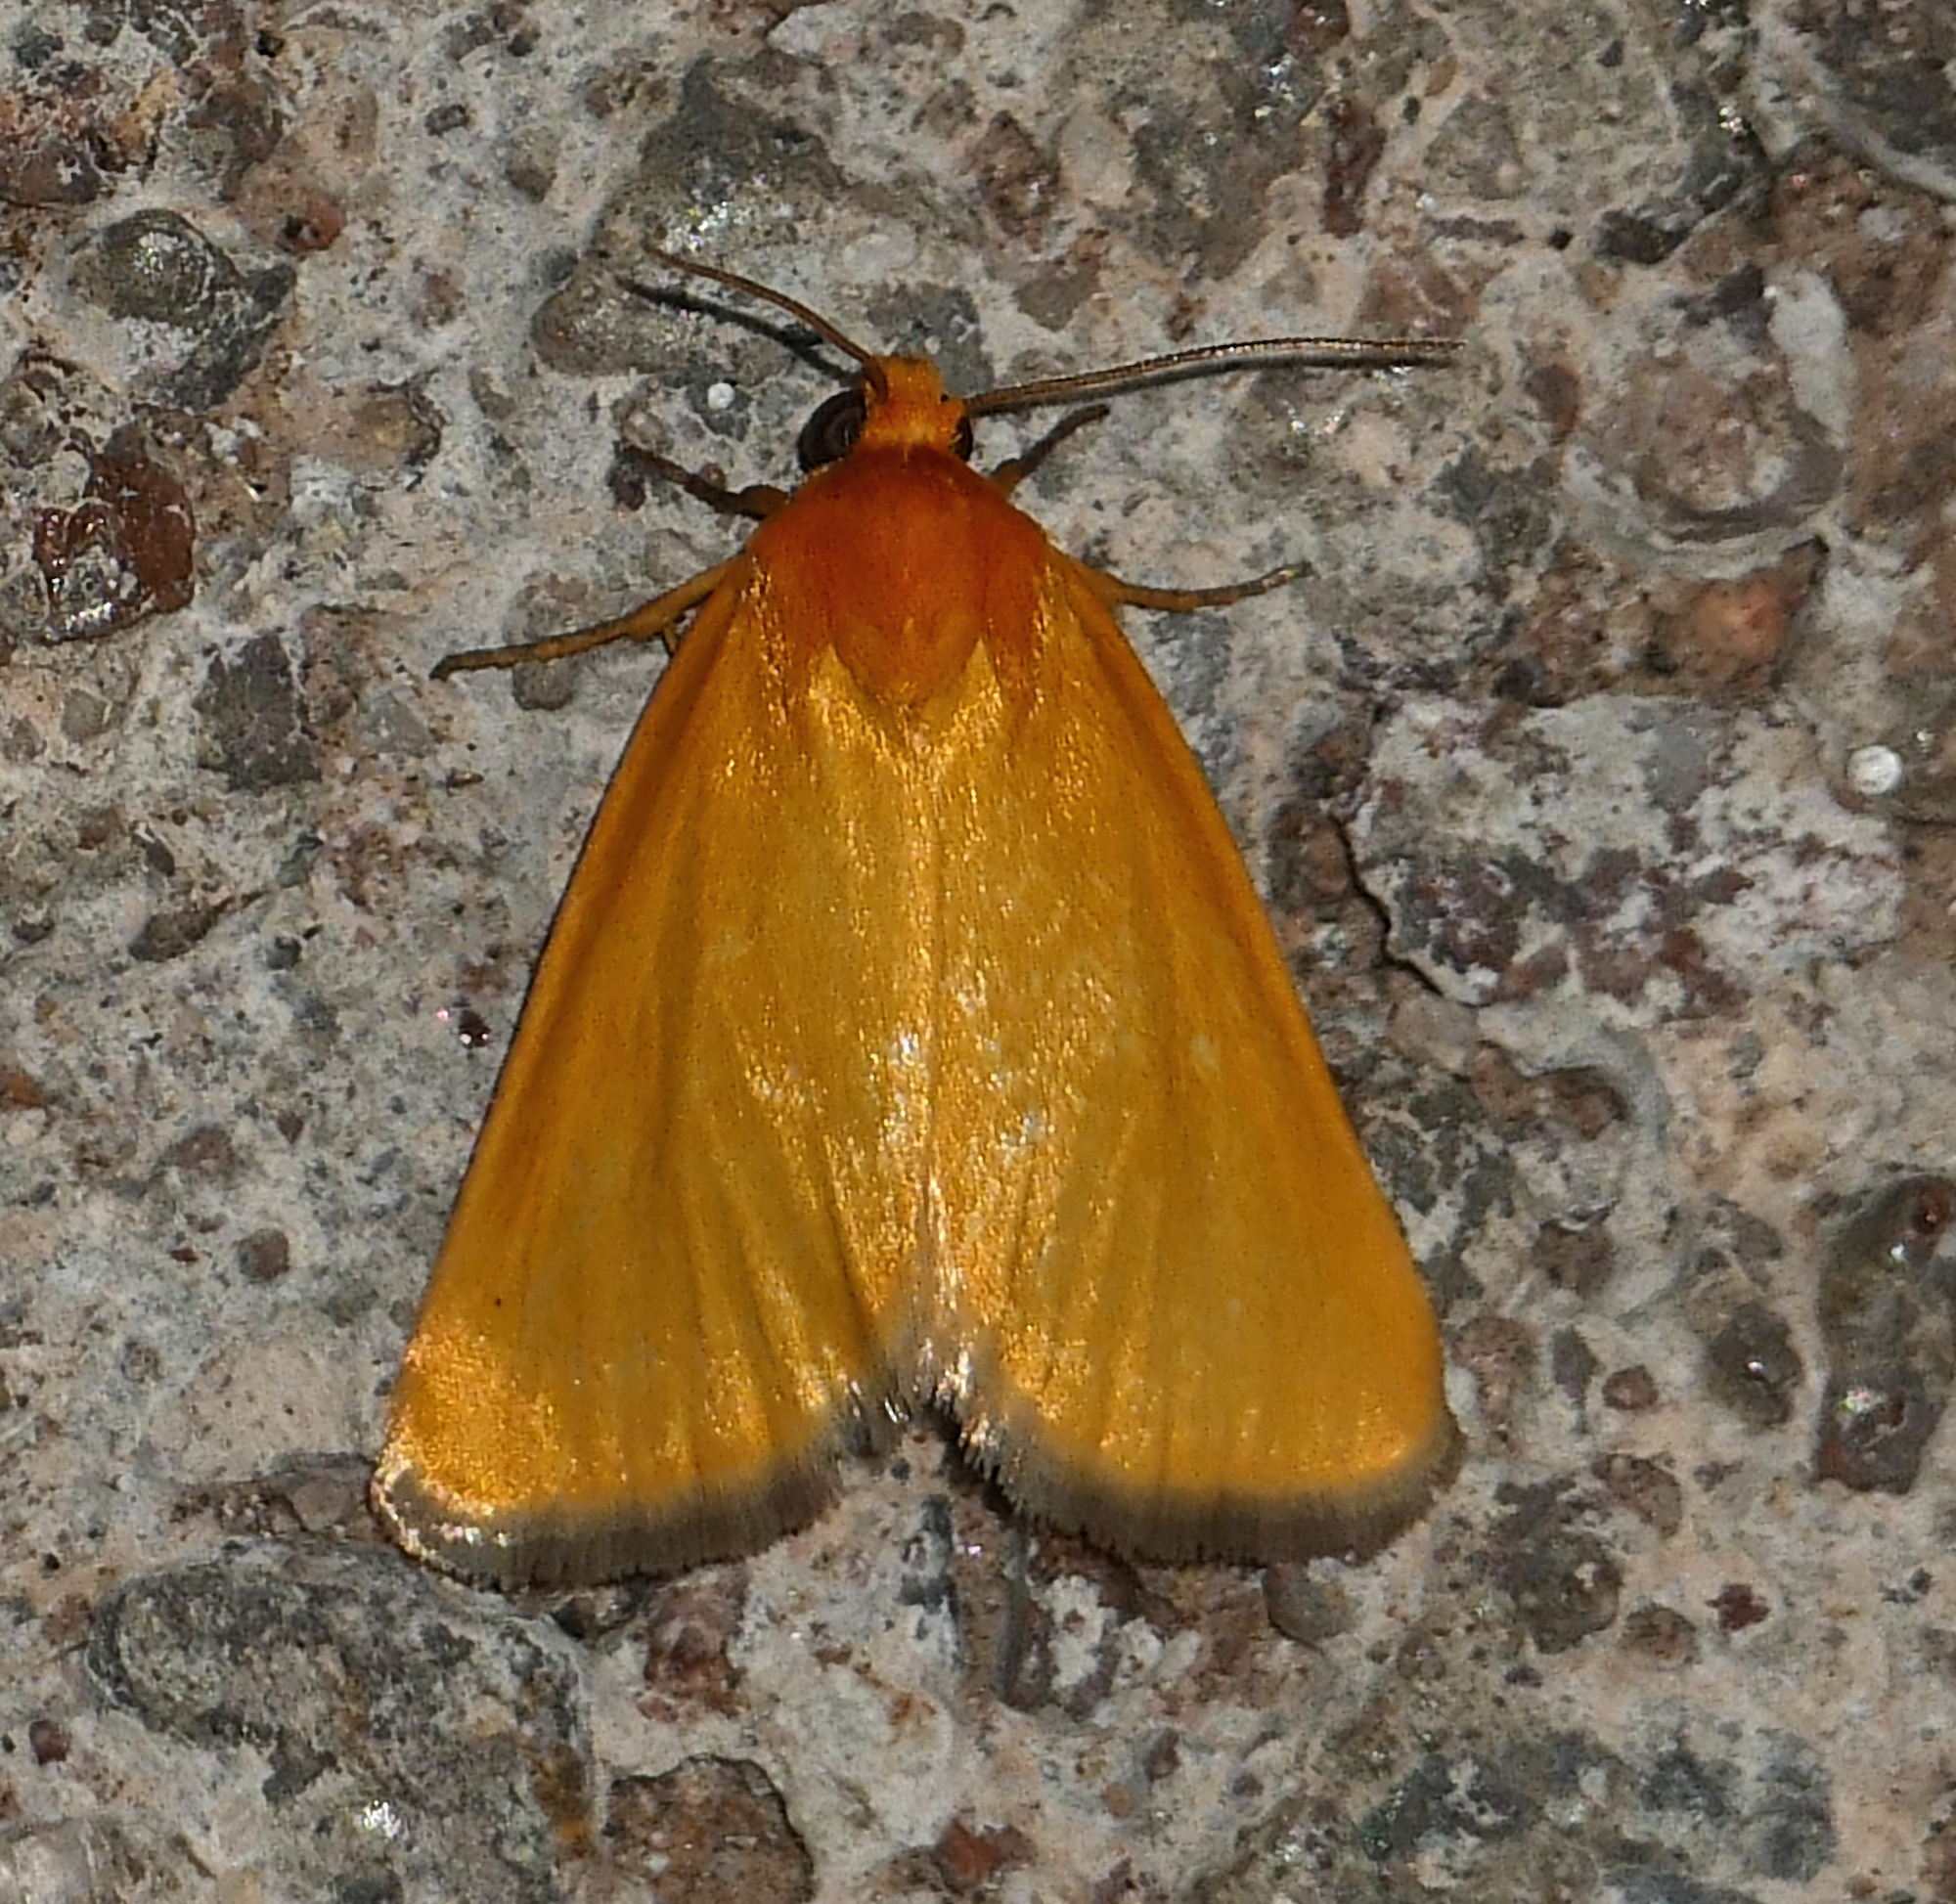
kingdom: Animalia
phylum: Arthropoda
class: Insecta
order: Lepidoptera
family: Noctuidae
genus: Antaplaga
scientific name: Antaplaga Eulithosia composita
